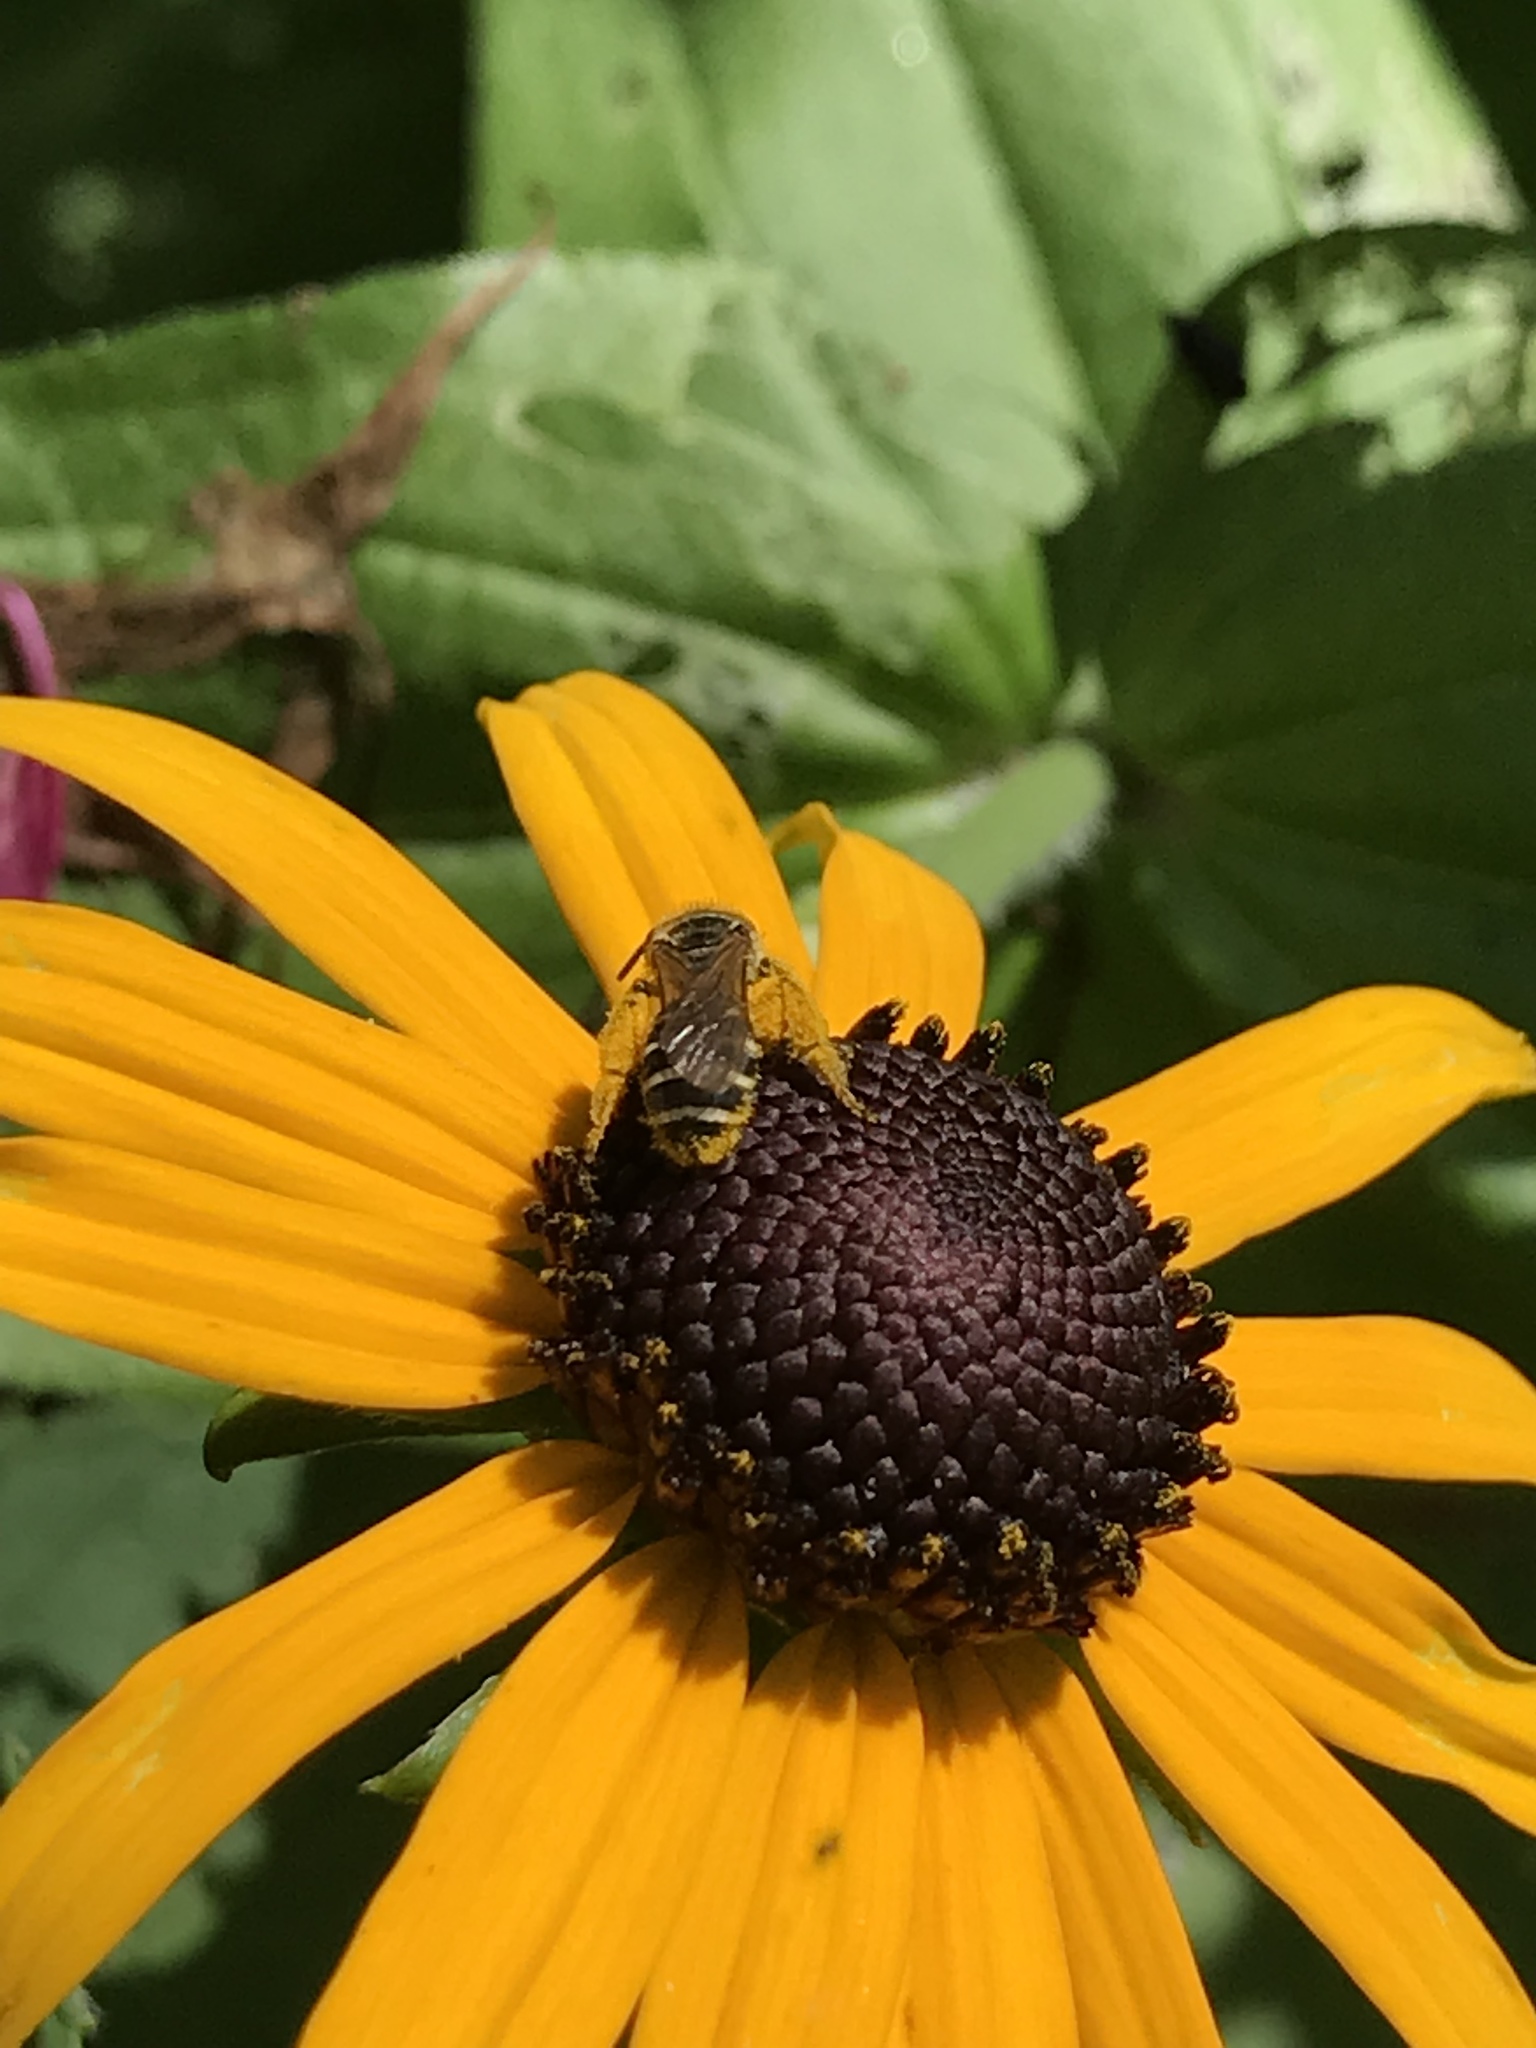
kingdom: Animalia
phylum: Arthropoda
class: Insecta
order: Hymenoptera
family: Halictidae
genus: Halictus
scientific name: Halictus ligatus
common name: Ligated furrow bee
